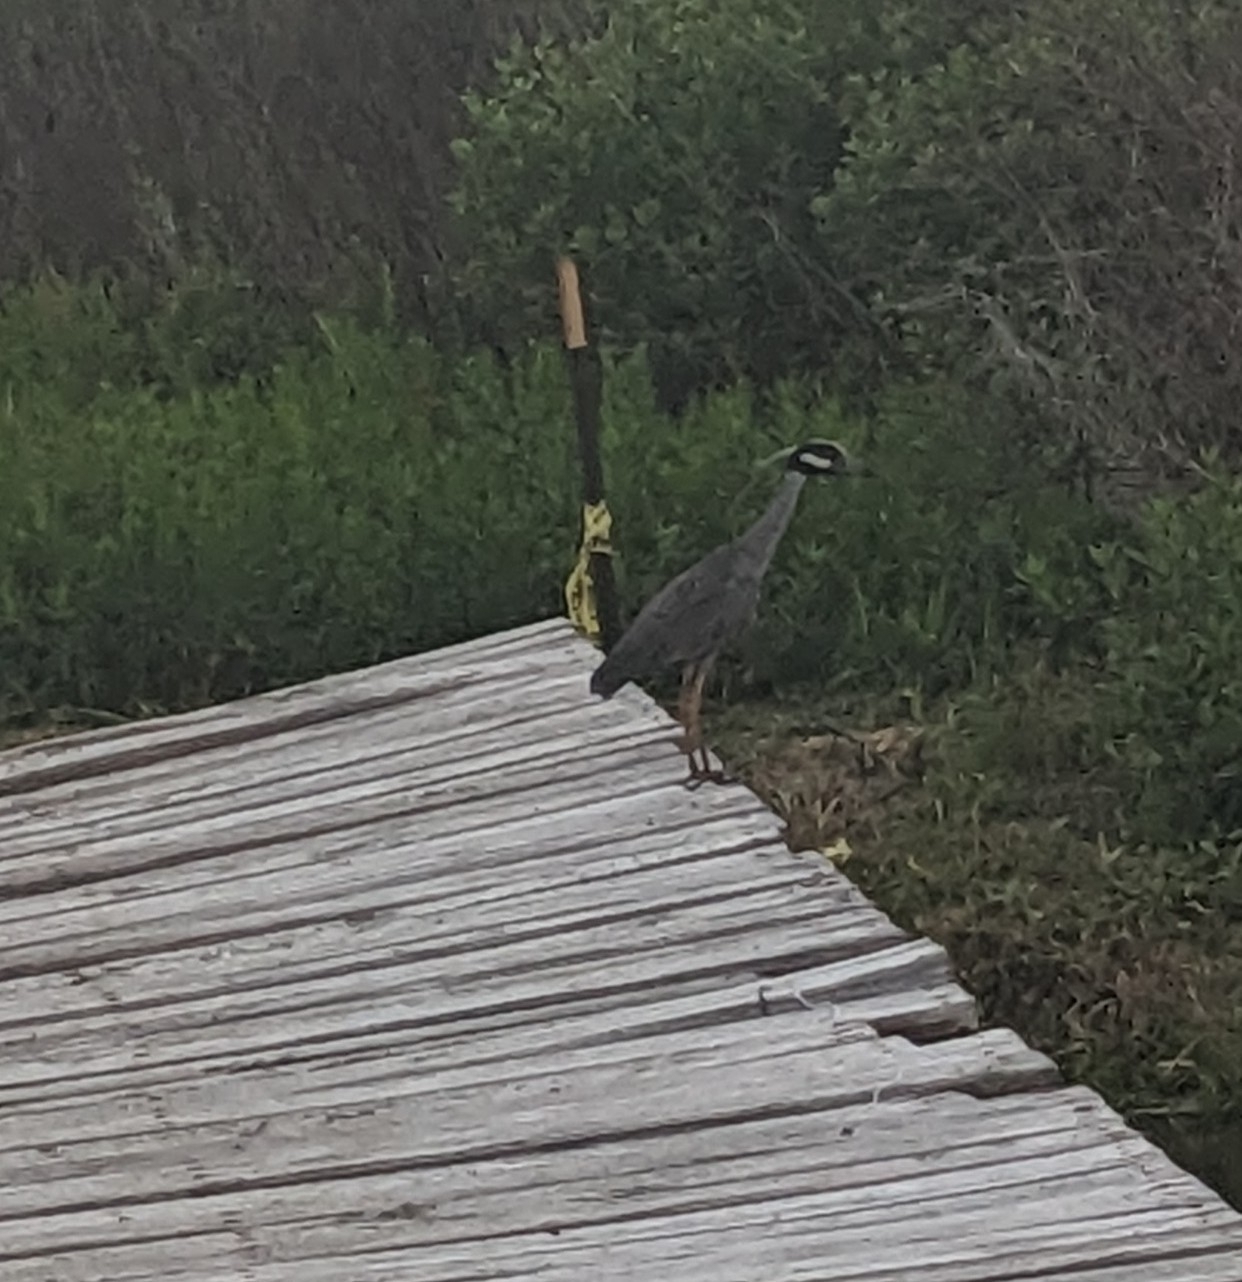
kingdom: Animalia
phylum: Chordata
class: Aves
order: Pelecaniformes
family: Ardeidae
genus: Nyctanassa
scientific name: Nyctanassa violacea
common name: Yellow-crowned night heron
